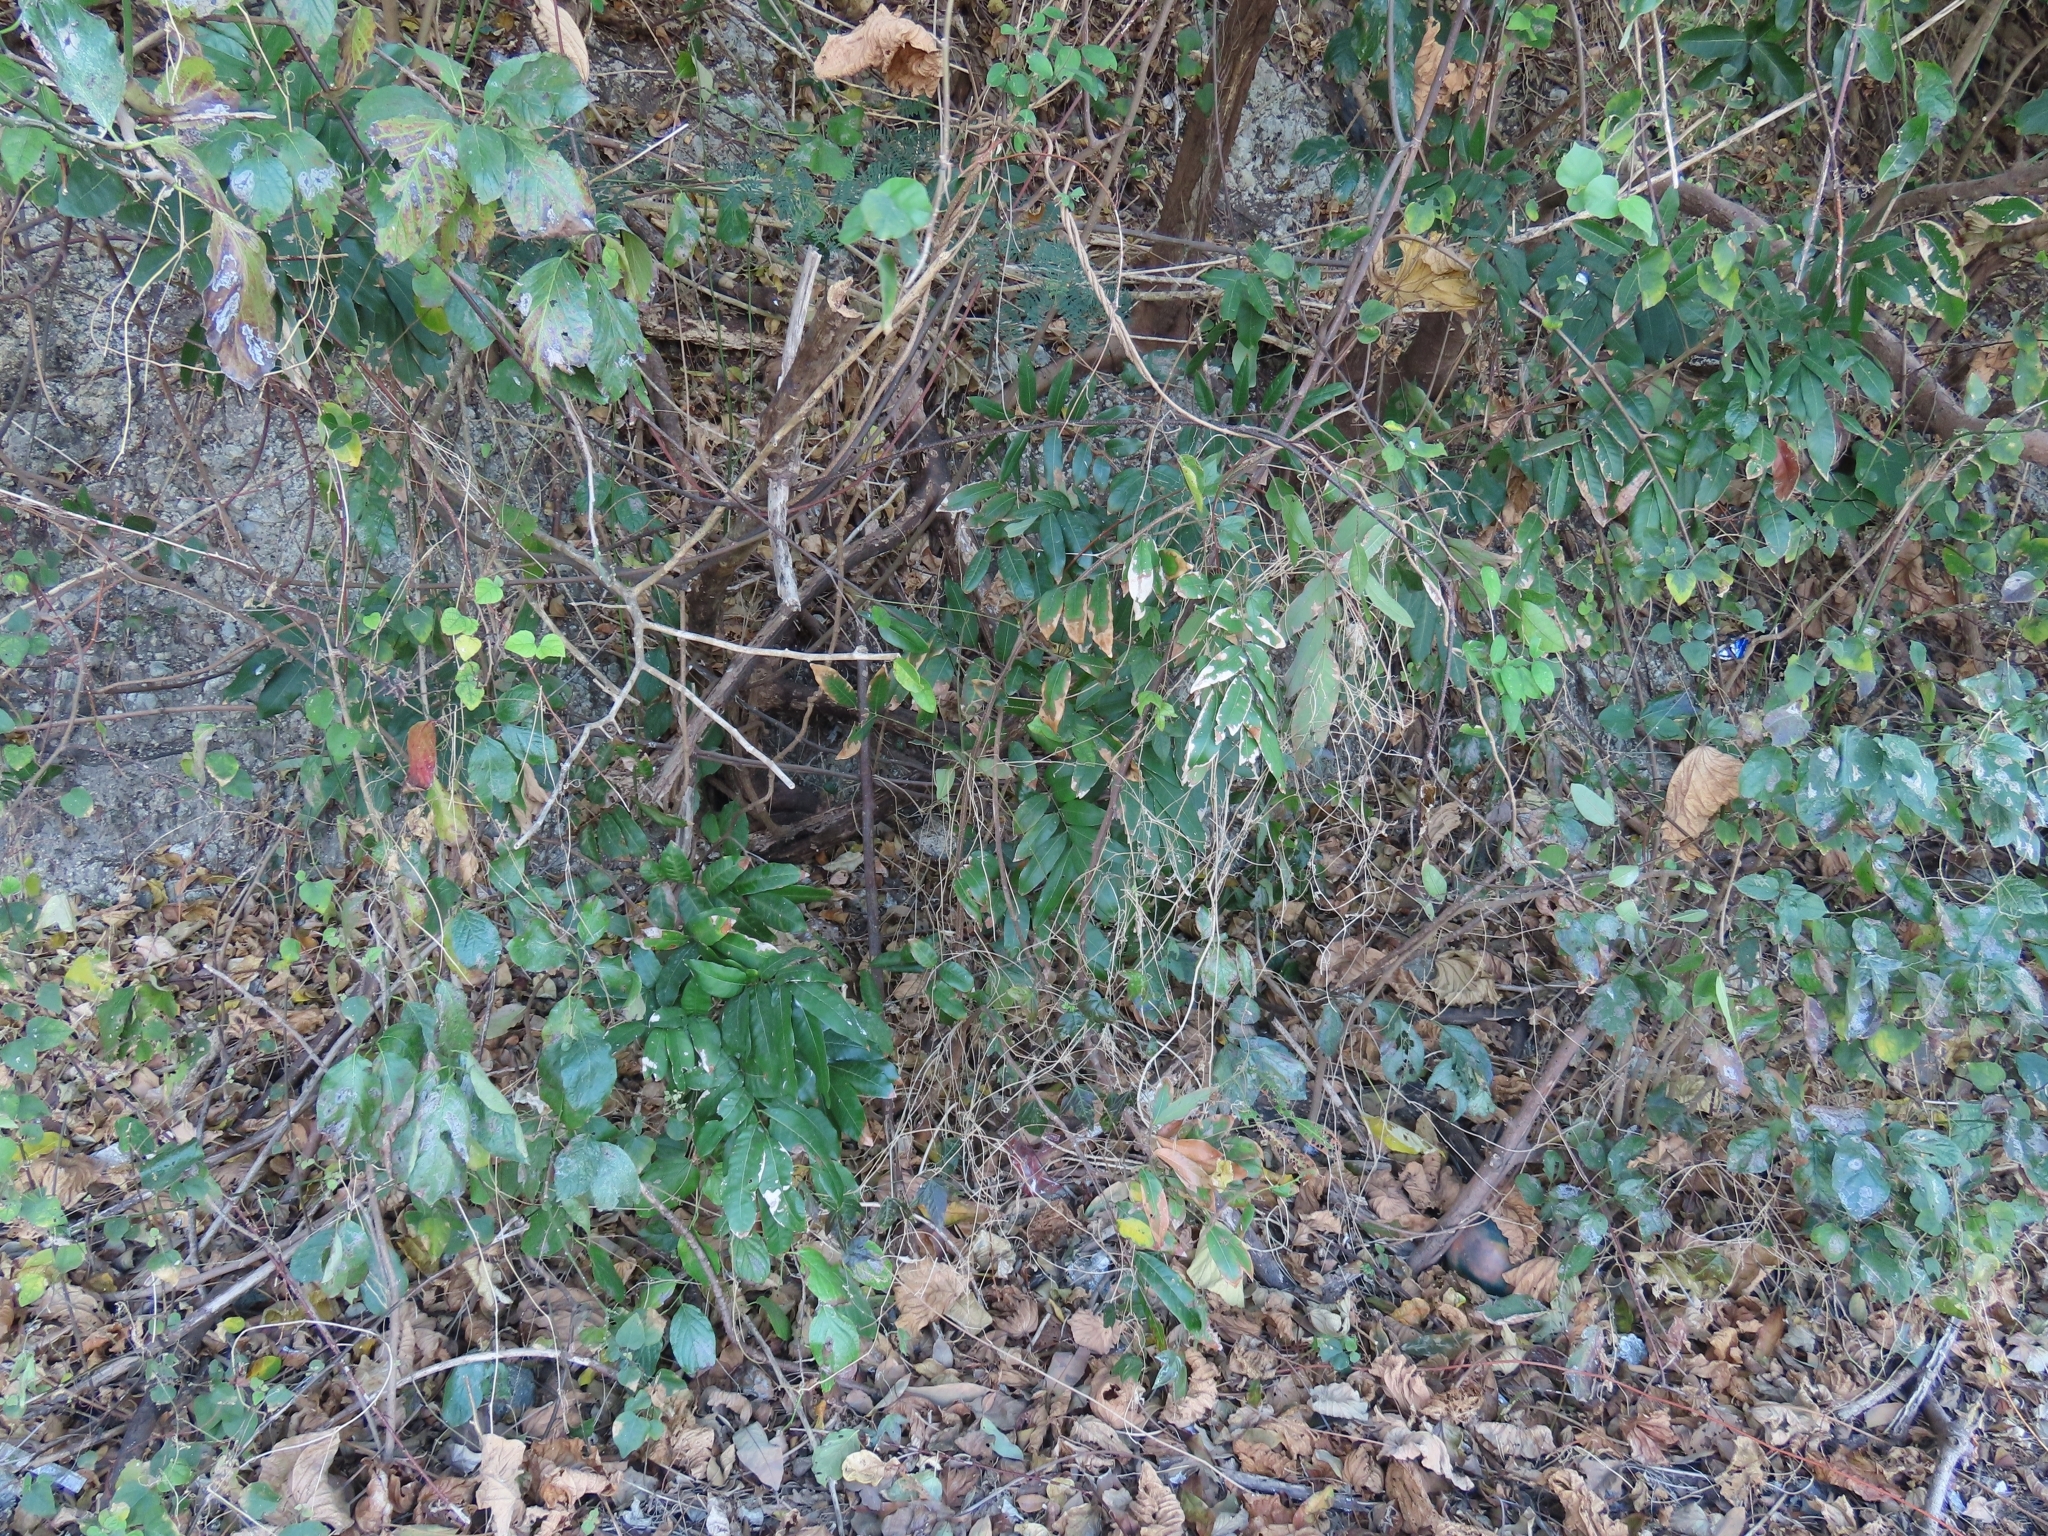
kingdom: Plantae
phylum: Tracheophyta
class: Magnoliopsida
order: Sapindales
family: Sapindaceae
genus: Dimocarpus
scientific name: Dimocarpus longan
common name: Longan
